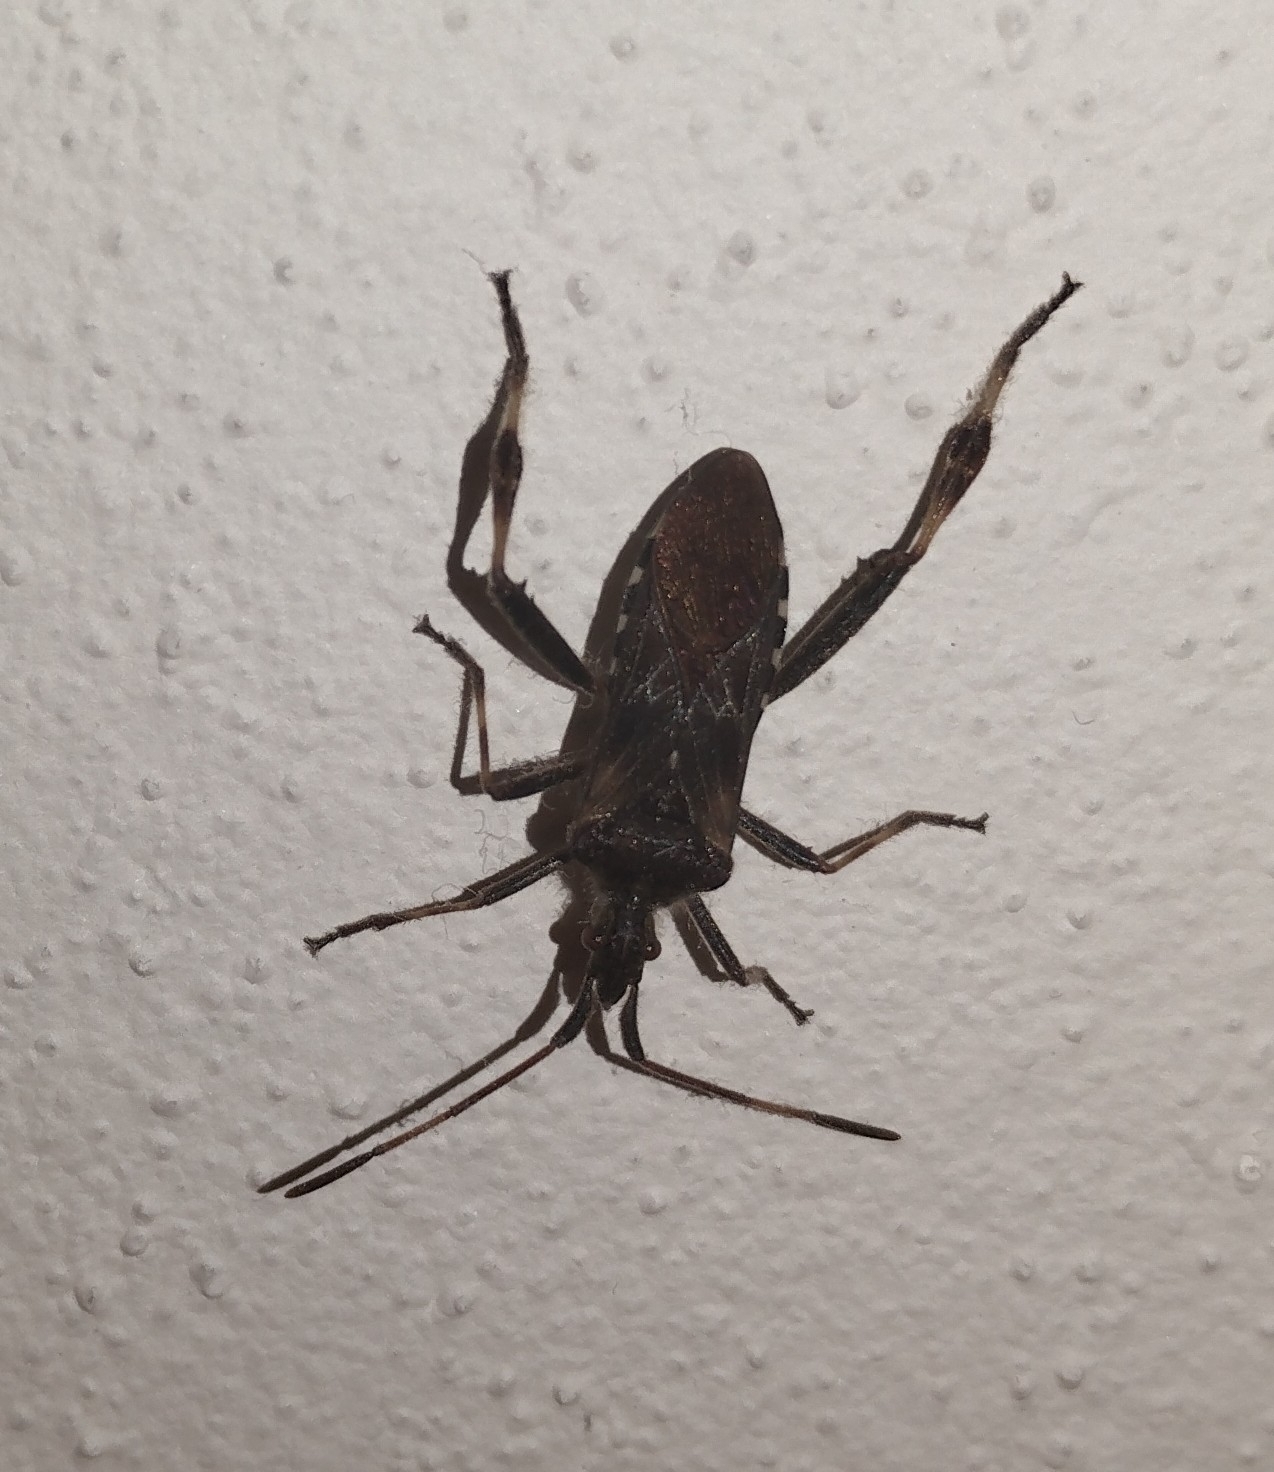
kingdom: Animalia
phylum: Arthropoda
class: Insecta
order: Hemiptera
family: Coreidae
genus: Leptoglossus
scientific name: Leptoglossus occidentalis
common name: Western conifer-seed bug
